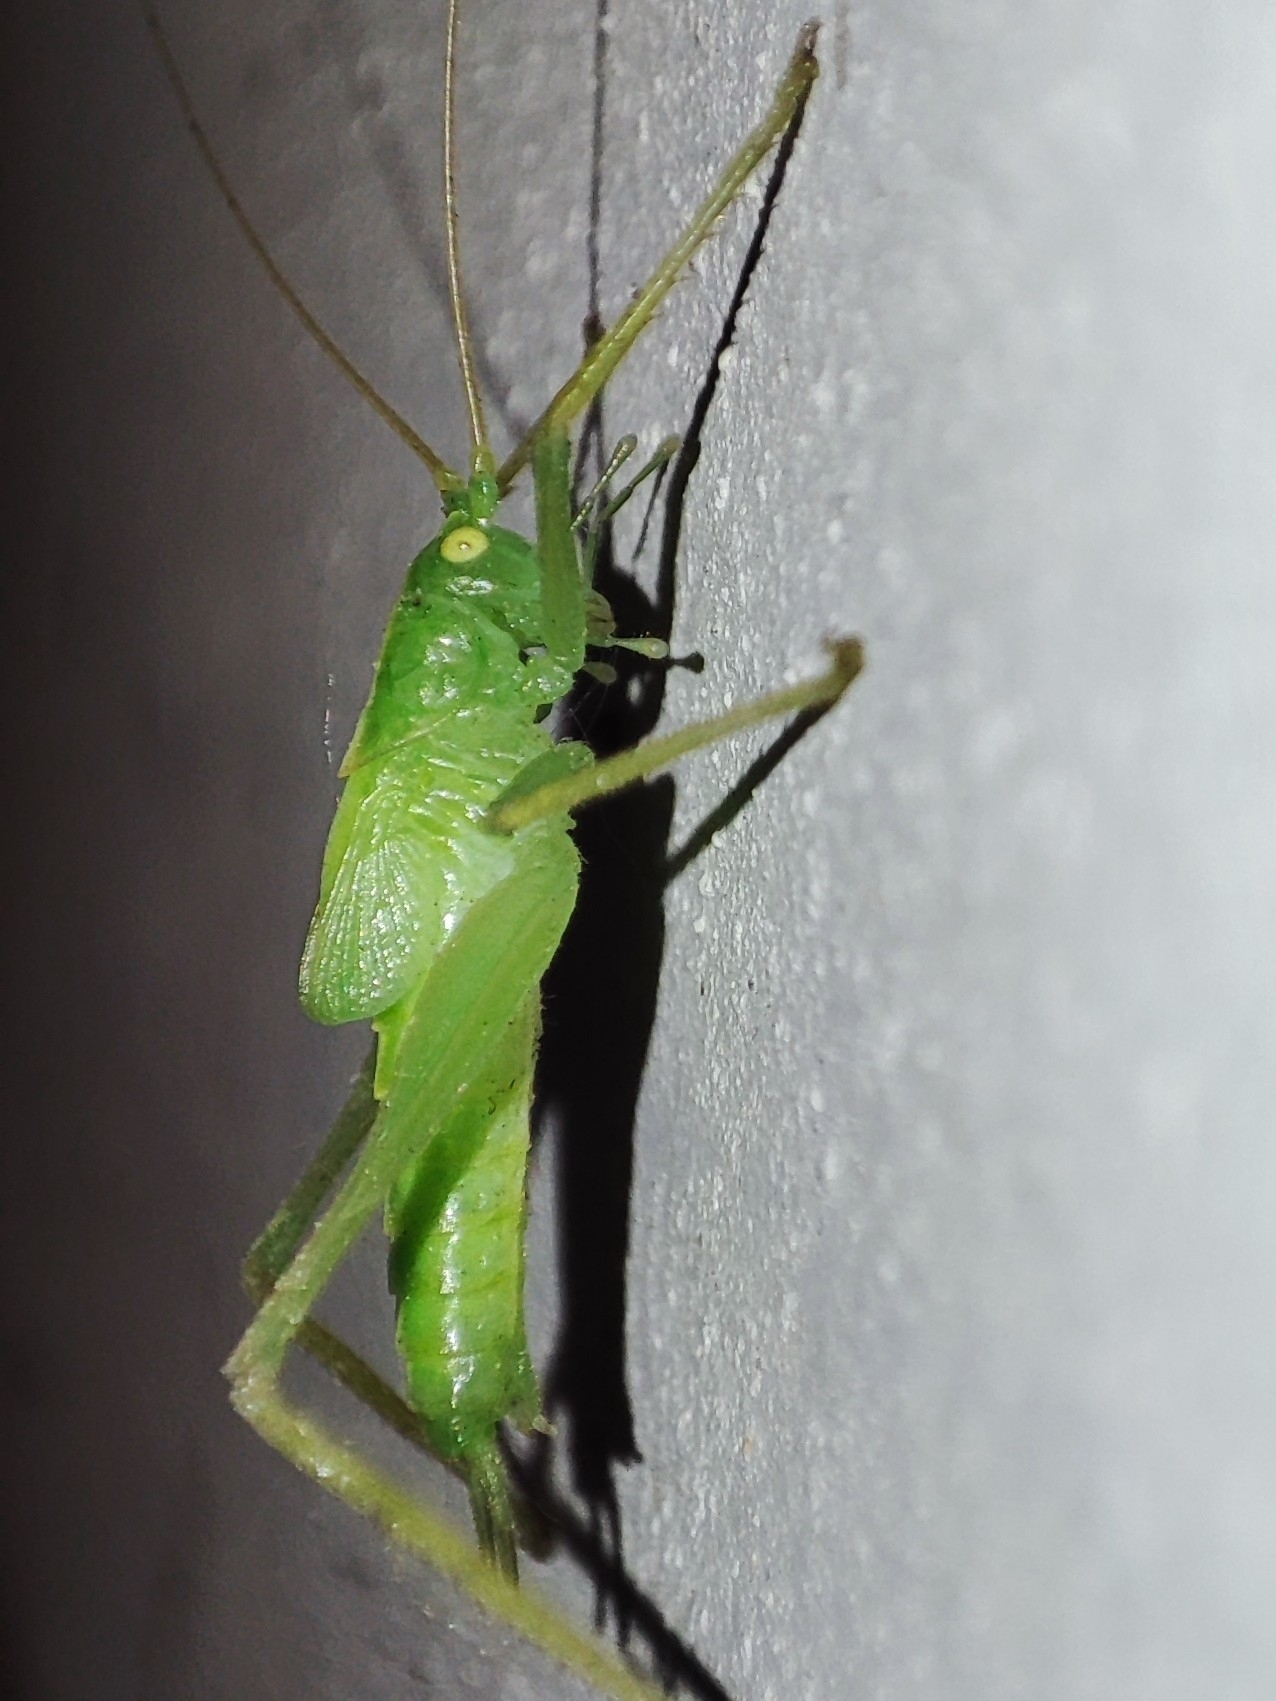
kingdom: Animalia
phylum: Arthropoda
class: Insecta
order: Orthoptera
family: Tettigoniidae
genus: Meconema
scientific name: Meconema thalassinum
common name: Oak bush-cricket
